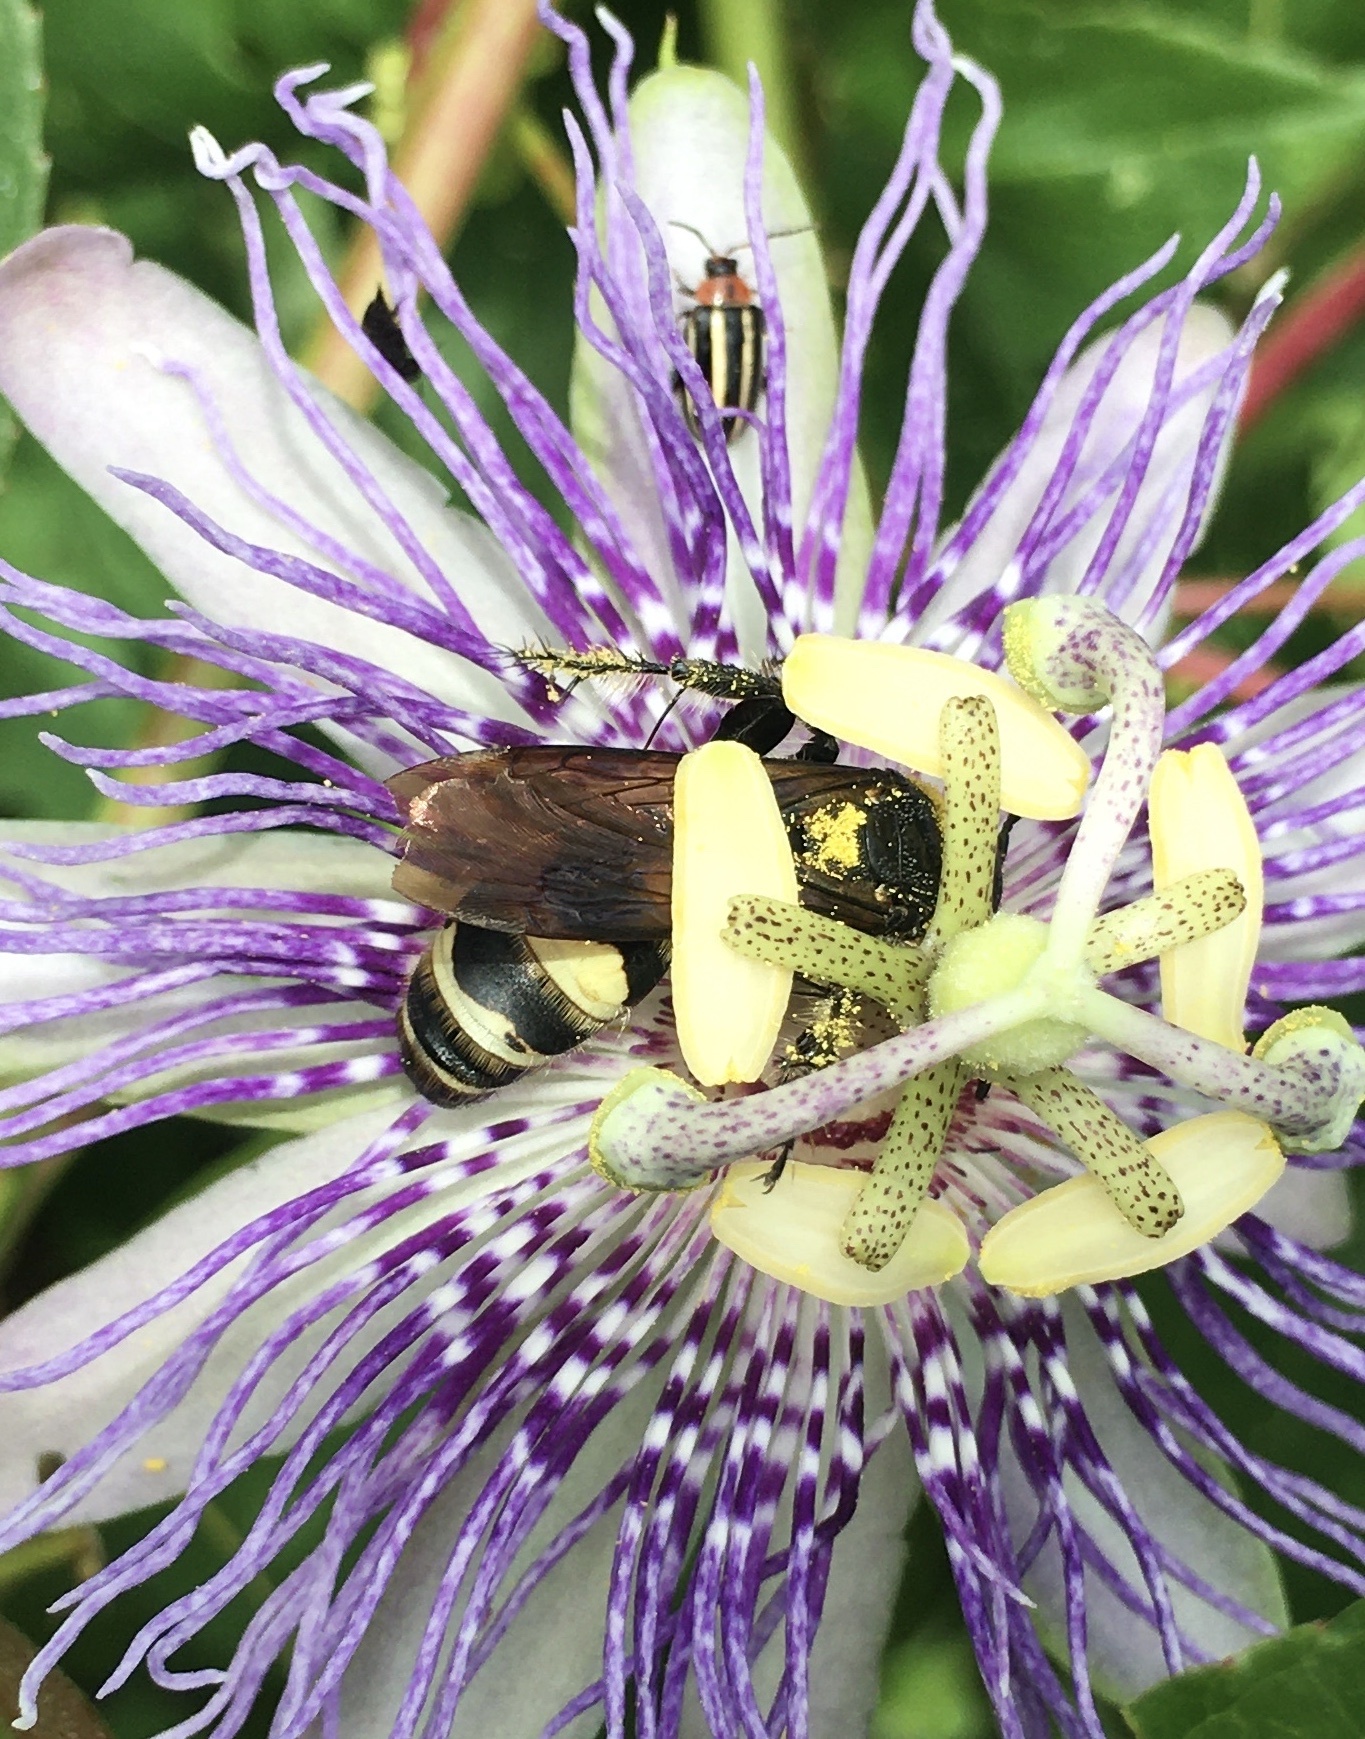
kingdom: Animalia
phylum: Arthropoda
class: Insecta
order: Hymenoptera
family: Scoliidae
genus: Dielis
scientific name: Dielis
